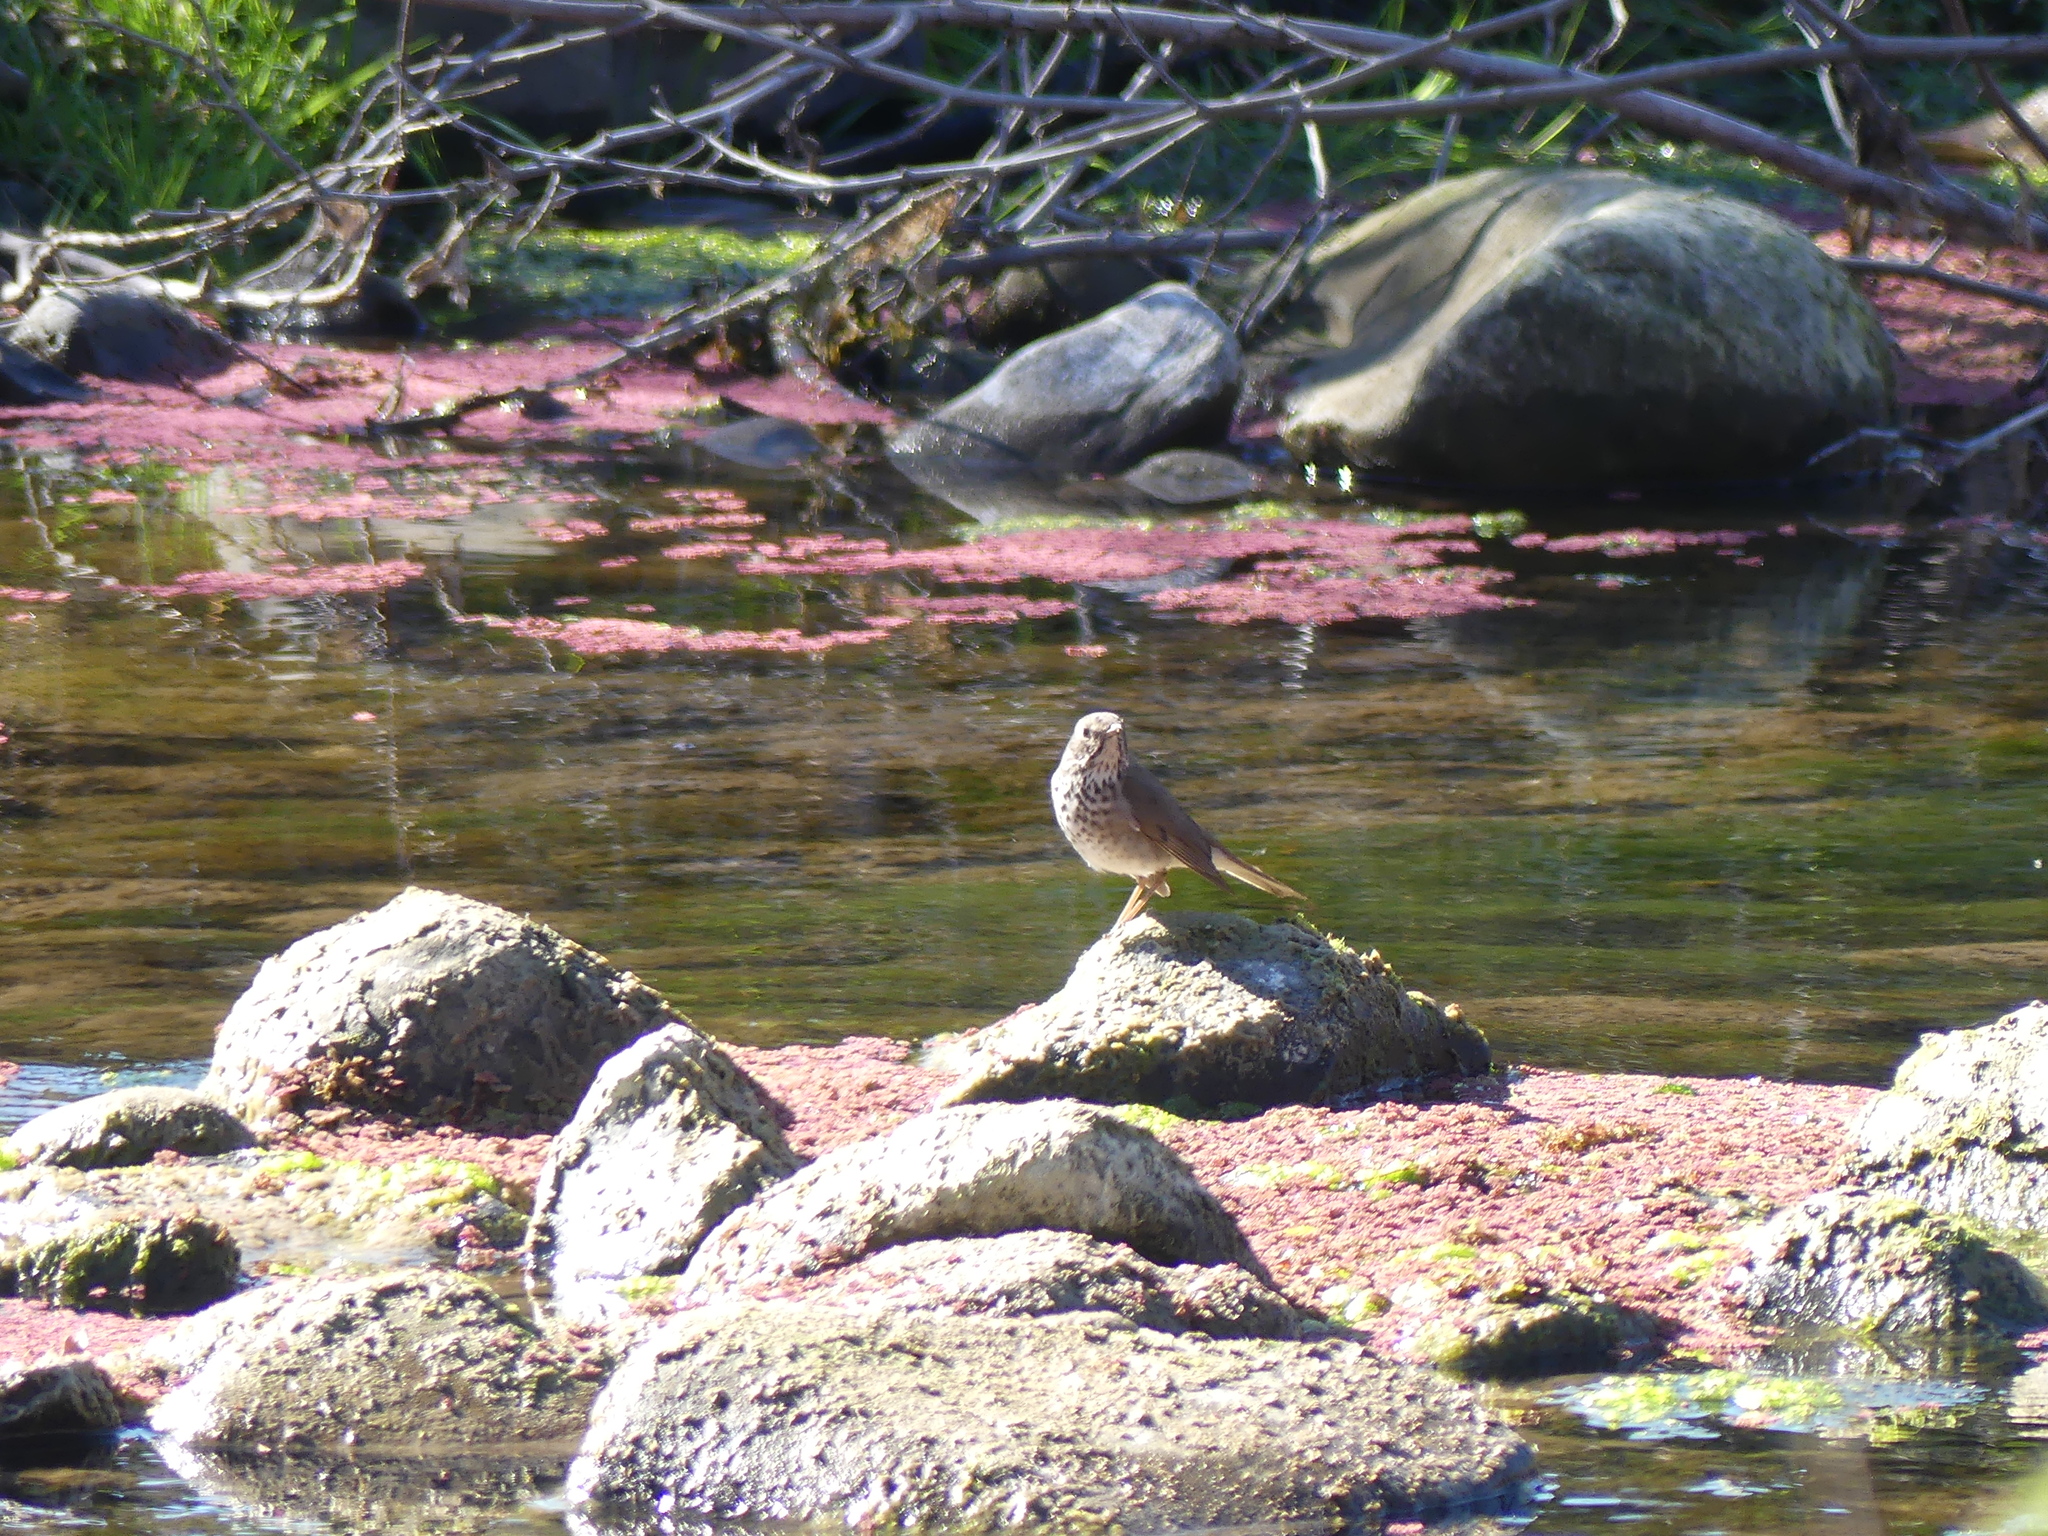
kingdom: Animalia
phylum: Chordata
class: Aves
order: Passeriformes
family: Turdidae
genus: Catharus
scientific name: Catharus guttatus
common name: Hermit thrush
